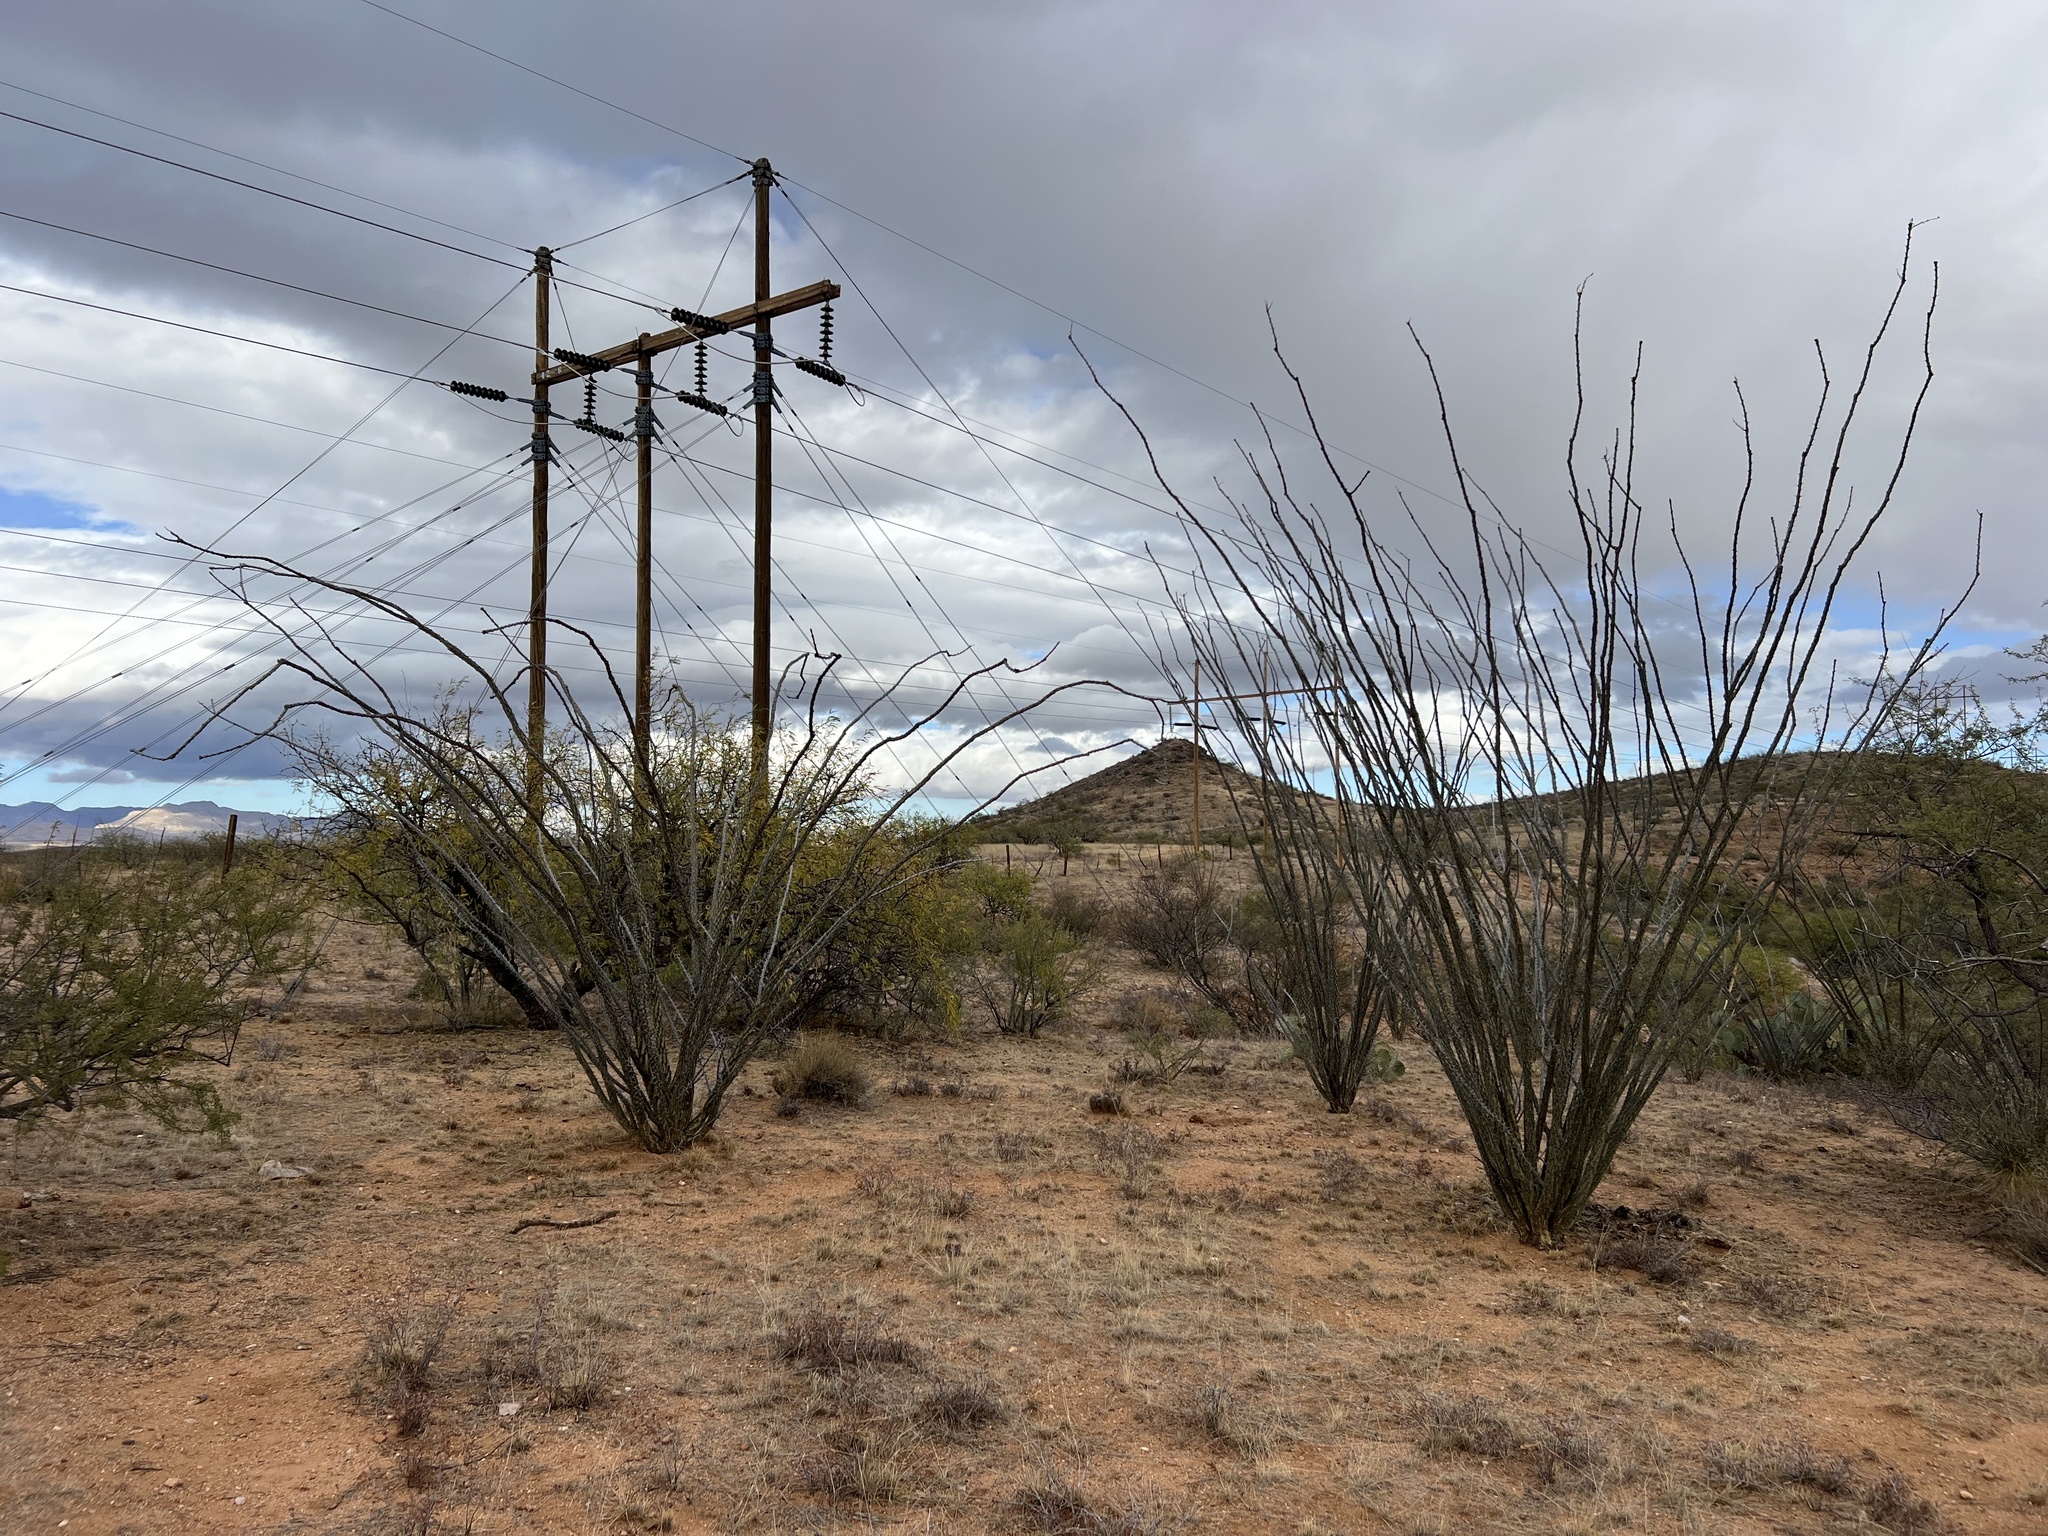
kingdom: Plantae
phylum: Tracheophyta
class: Magnoliopsida
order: Ericales
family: Fouquieriaceae
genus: Fouquieria
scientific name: Fouquieria splendens
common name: Vine-cactus
